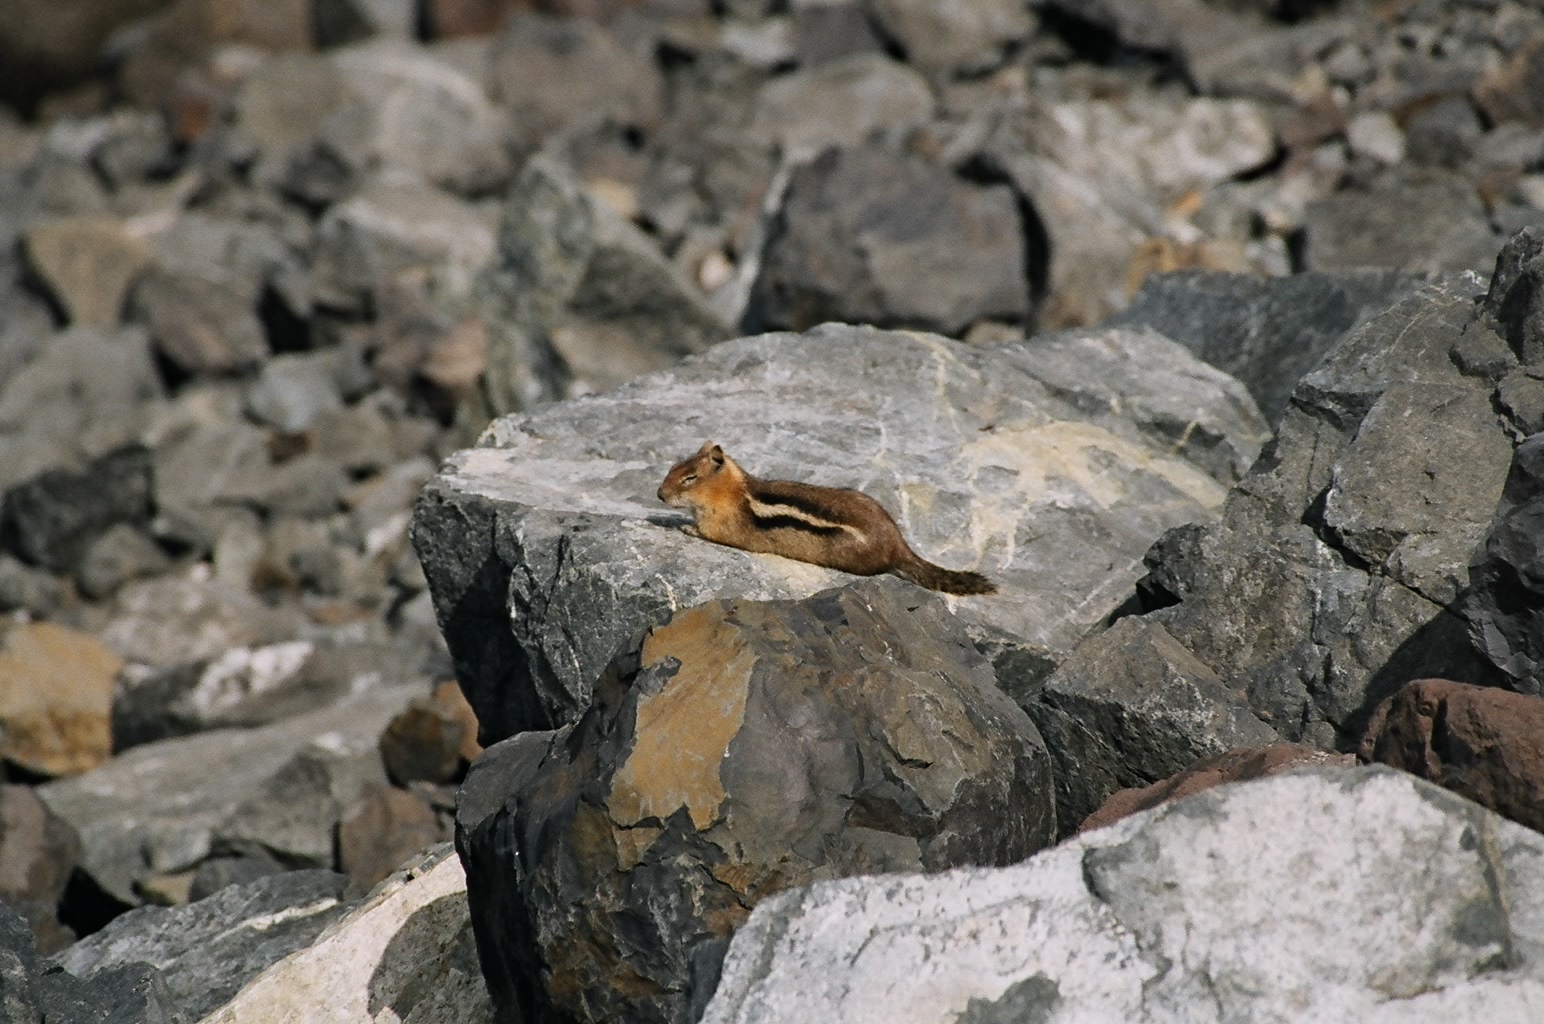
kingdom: Animalia
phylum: Chordata
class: Mammalia
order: Rodentia
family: Sciuridae
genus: Callospermophilus
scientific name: Callospermophilus lateralis
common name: Golden-mantled ground squirrel
